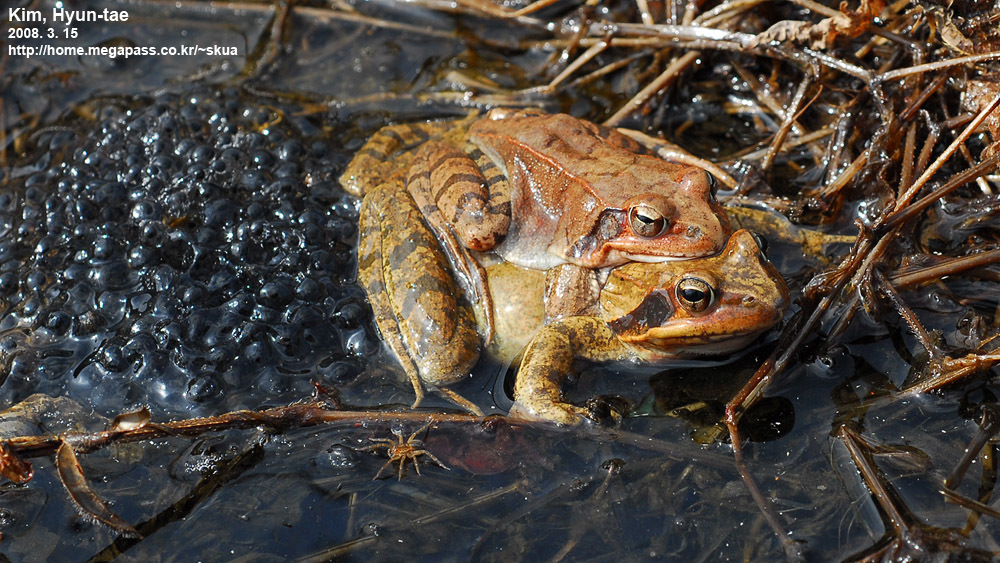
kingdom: Animalia
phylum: Chordata
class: Amphibia
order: Anura
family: Ranidae
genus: Rana
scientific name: Rana uenoi
